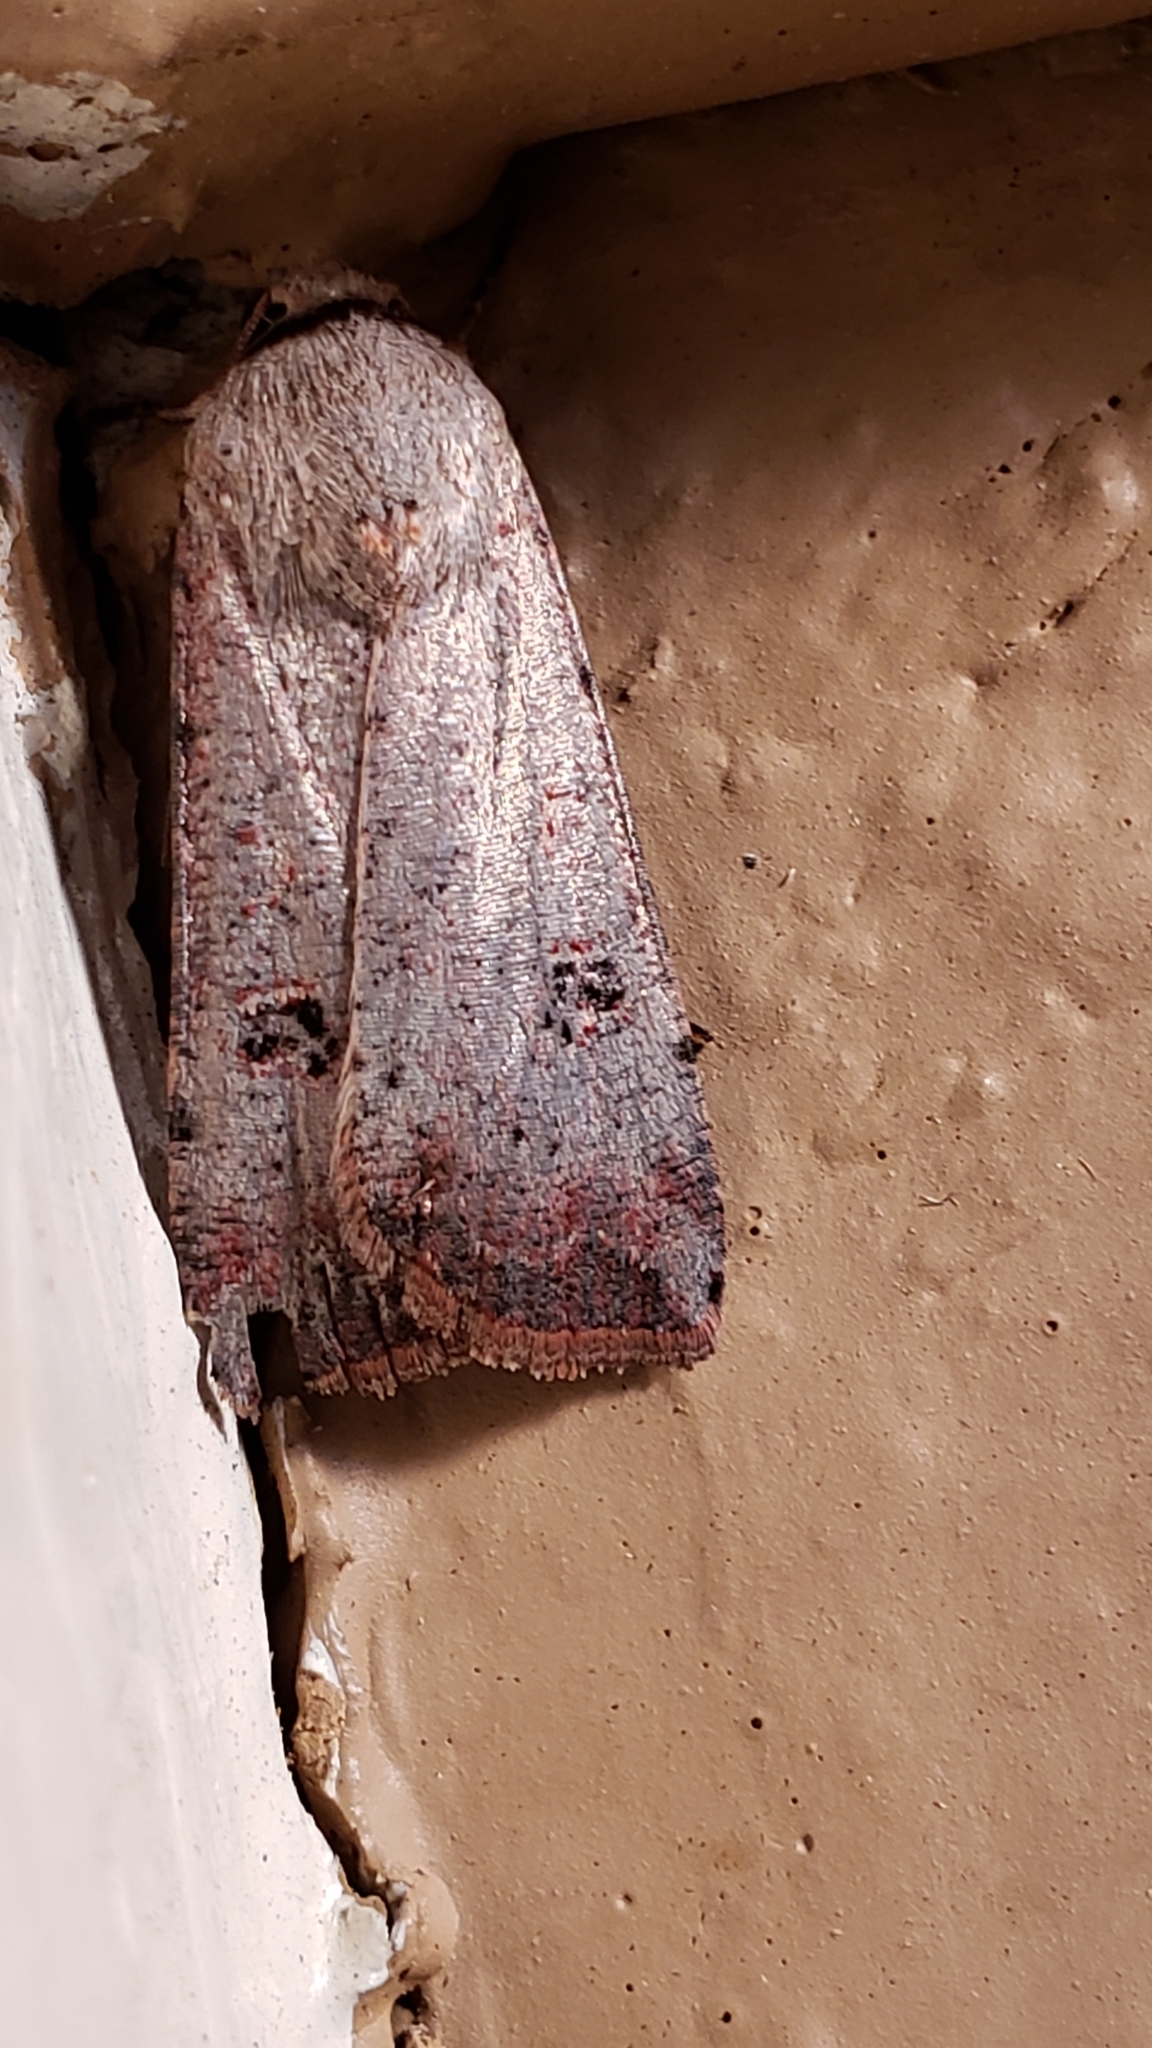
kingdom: Animalia
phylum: Arthropoda
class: Insecta
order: Lepidoptera
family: Noctuidae
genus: Anicla
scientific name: Anicla infecta
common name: Green cutworm
